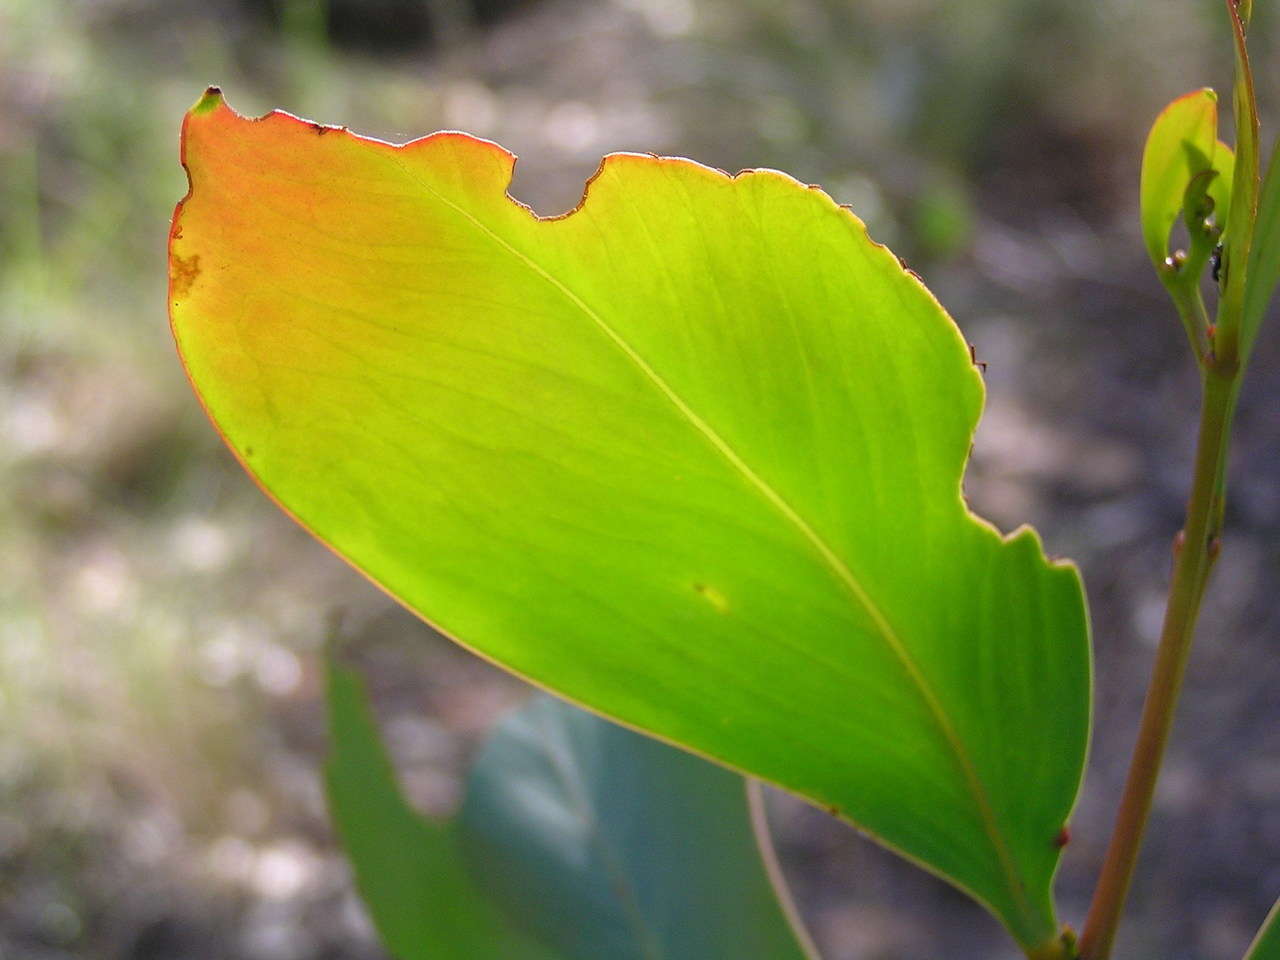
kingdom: Plantae
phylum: Tracheophyta
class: Magnoliopsida
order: Fabales
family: Fabaceae
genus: Acacia
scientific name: Acacia pycnantha
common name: Golden wattle
